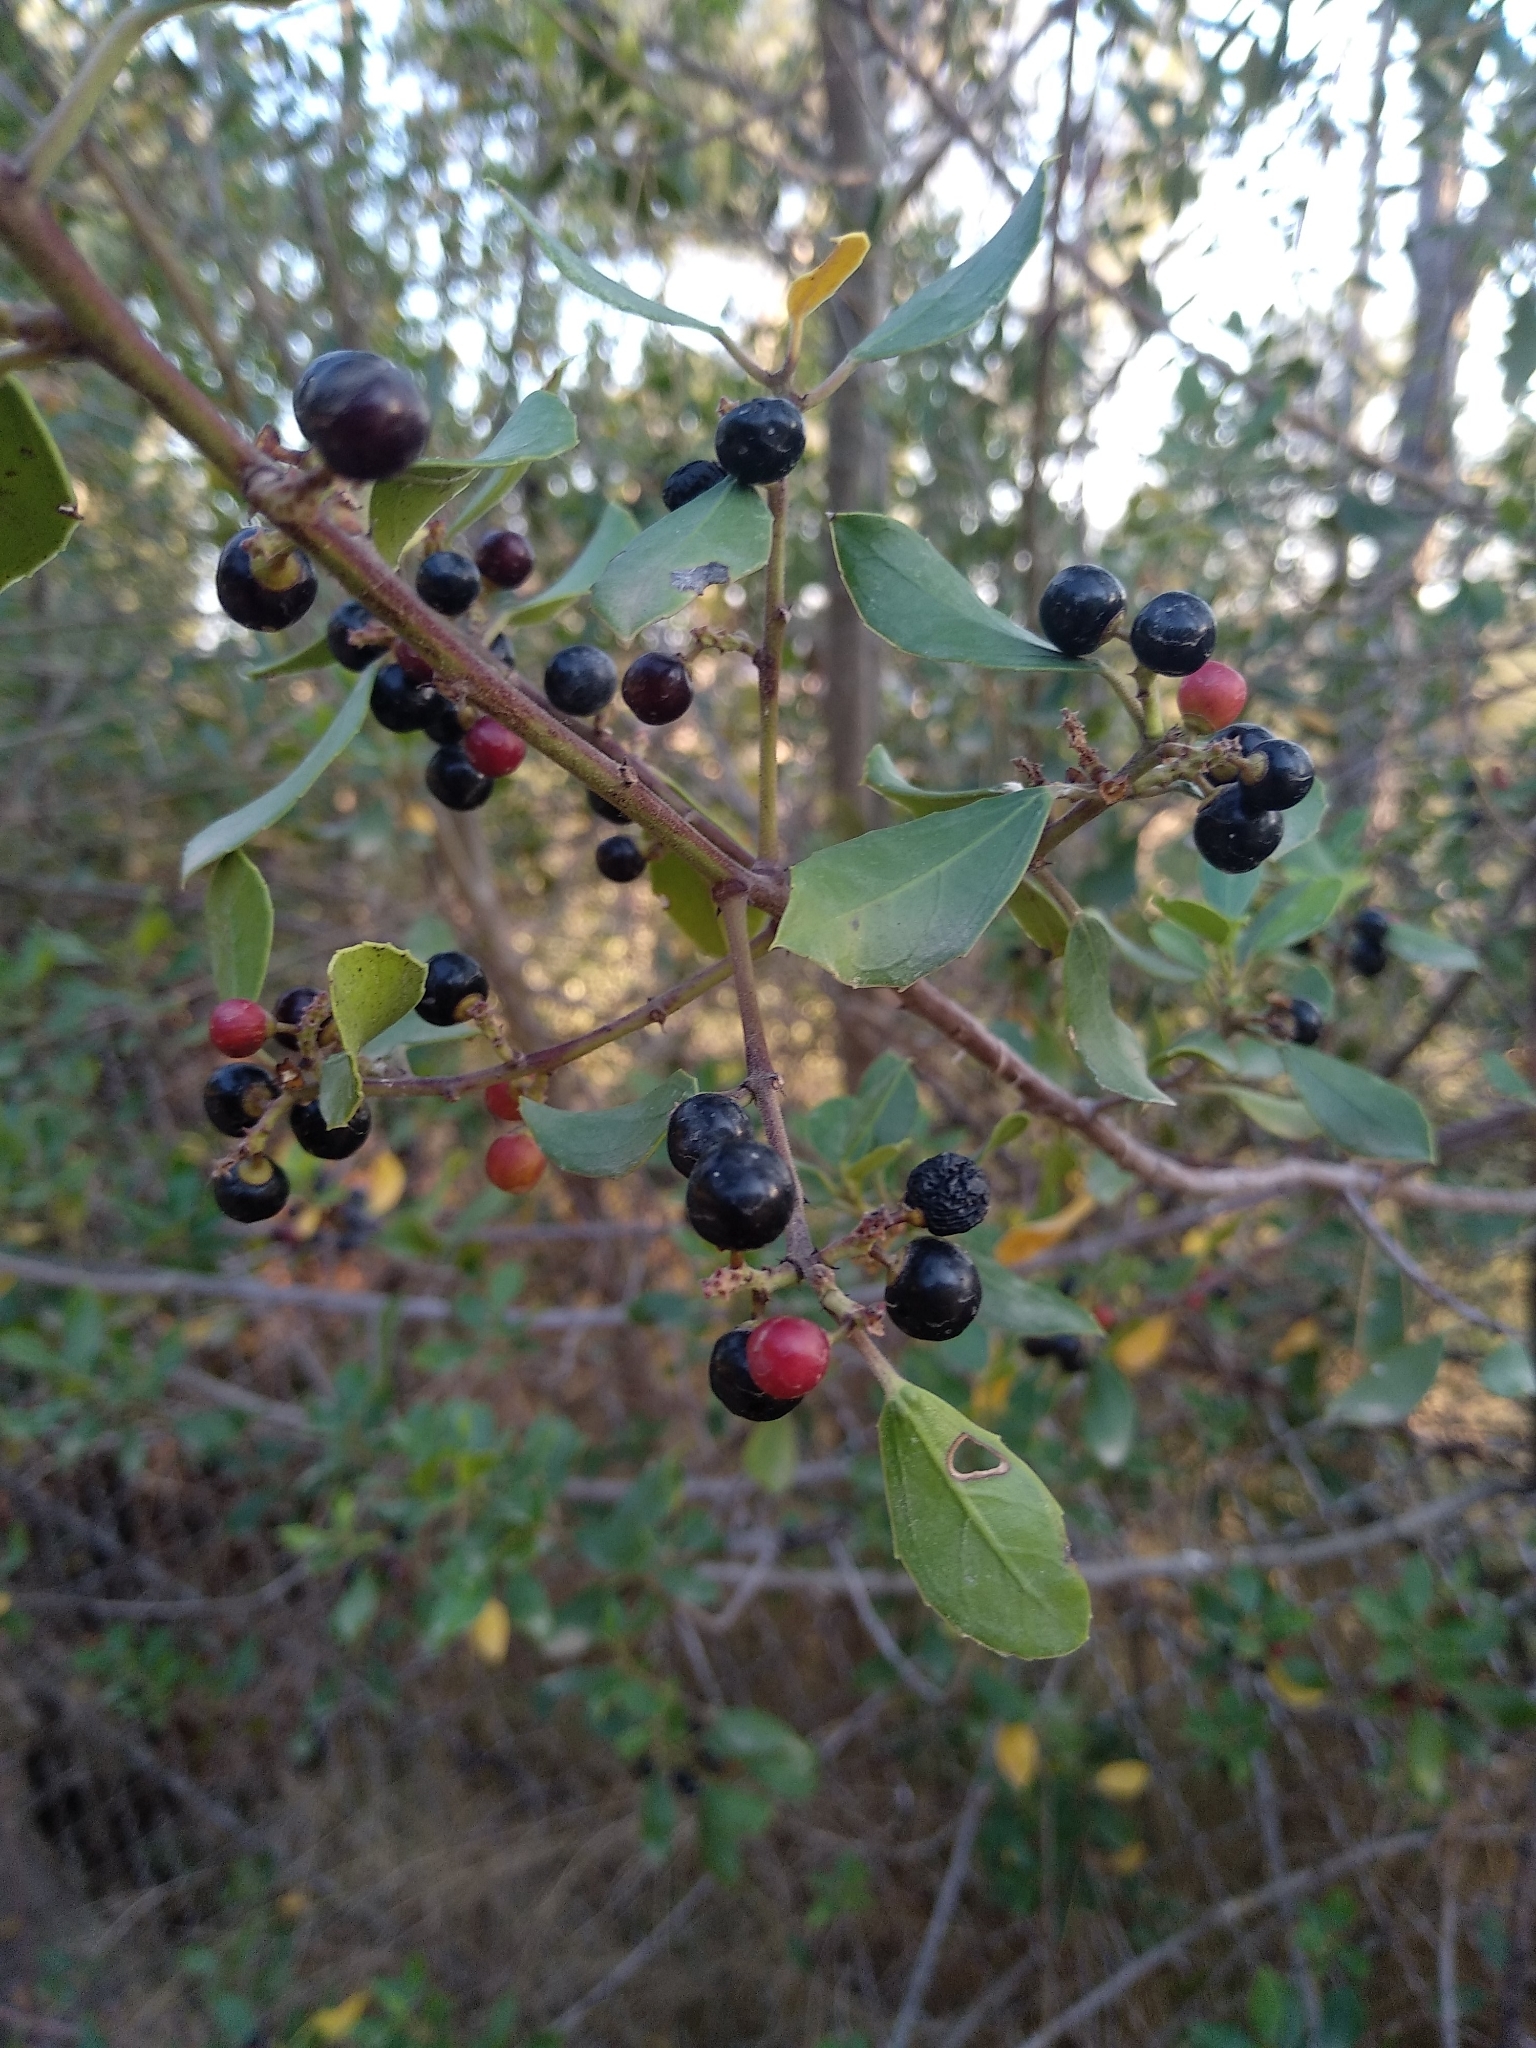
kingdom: Plantae
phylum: Tracheophyta
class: Magnoliopsida
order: Rosales
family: Rhamnaceae
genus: Rhamnus
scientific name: Rhamnus alaternus
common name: Mediterranean buckthorn
